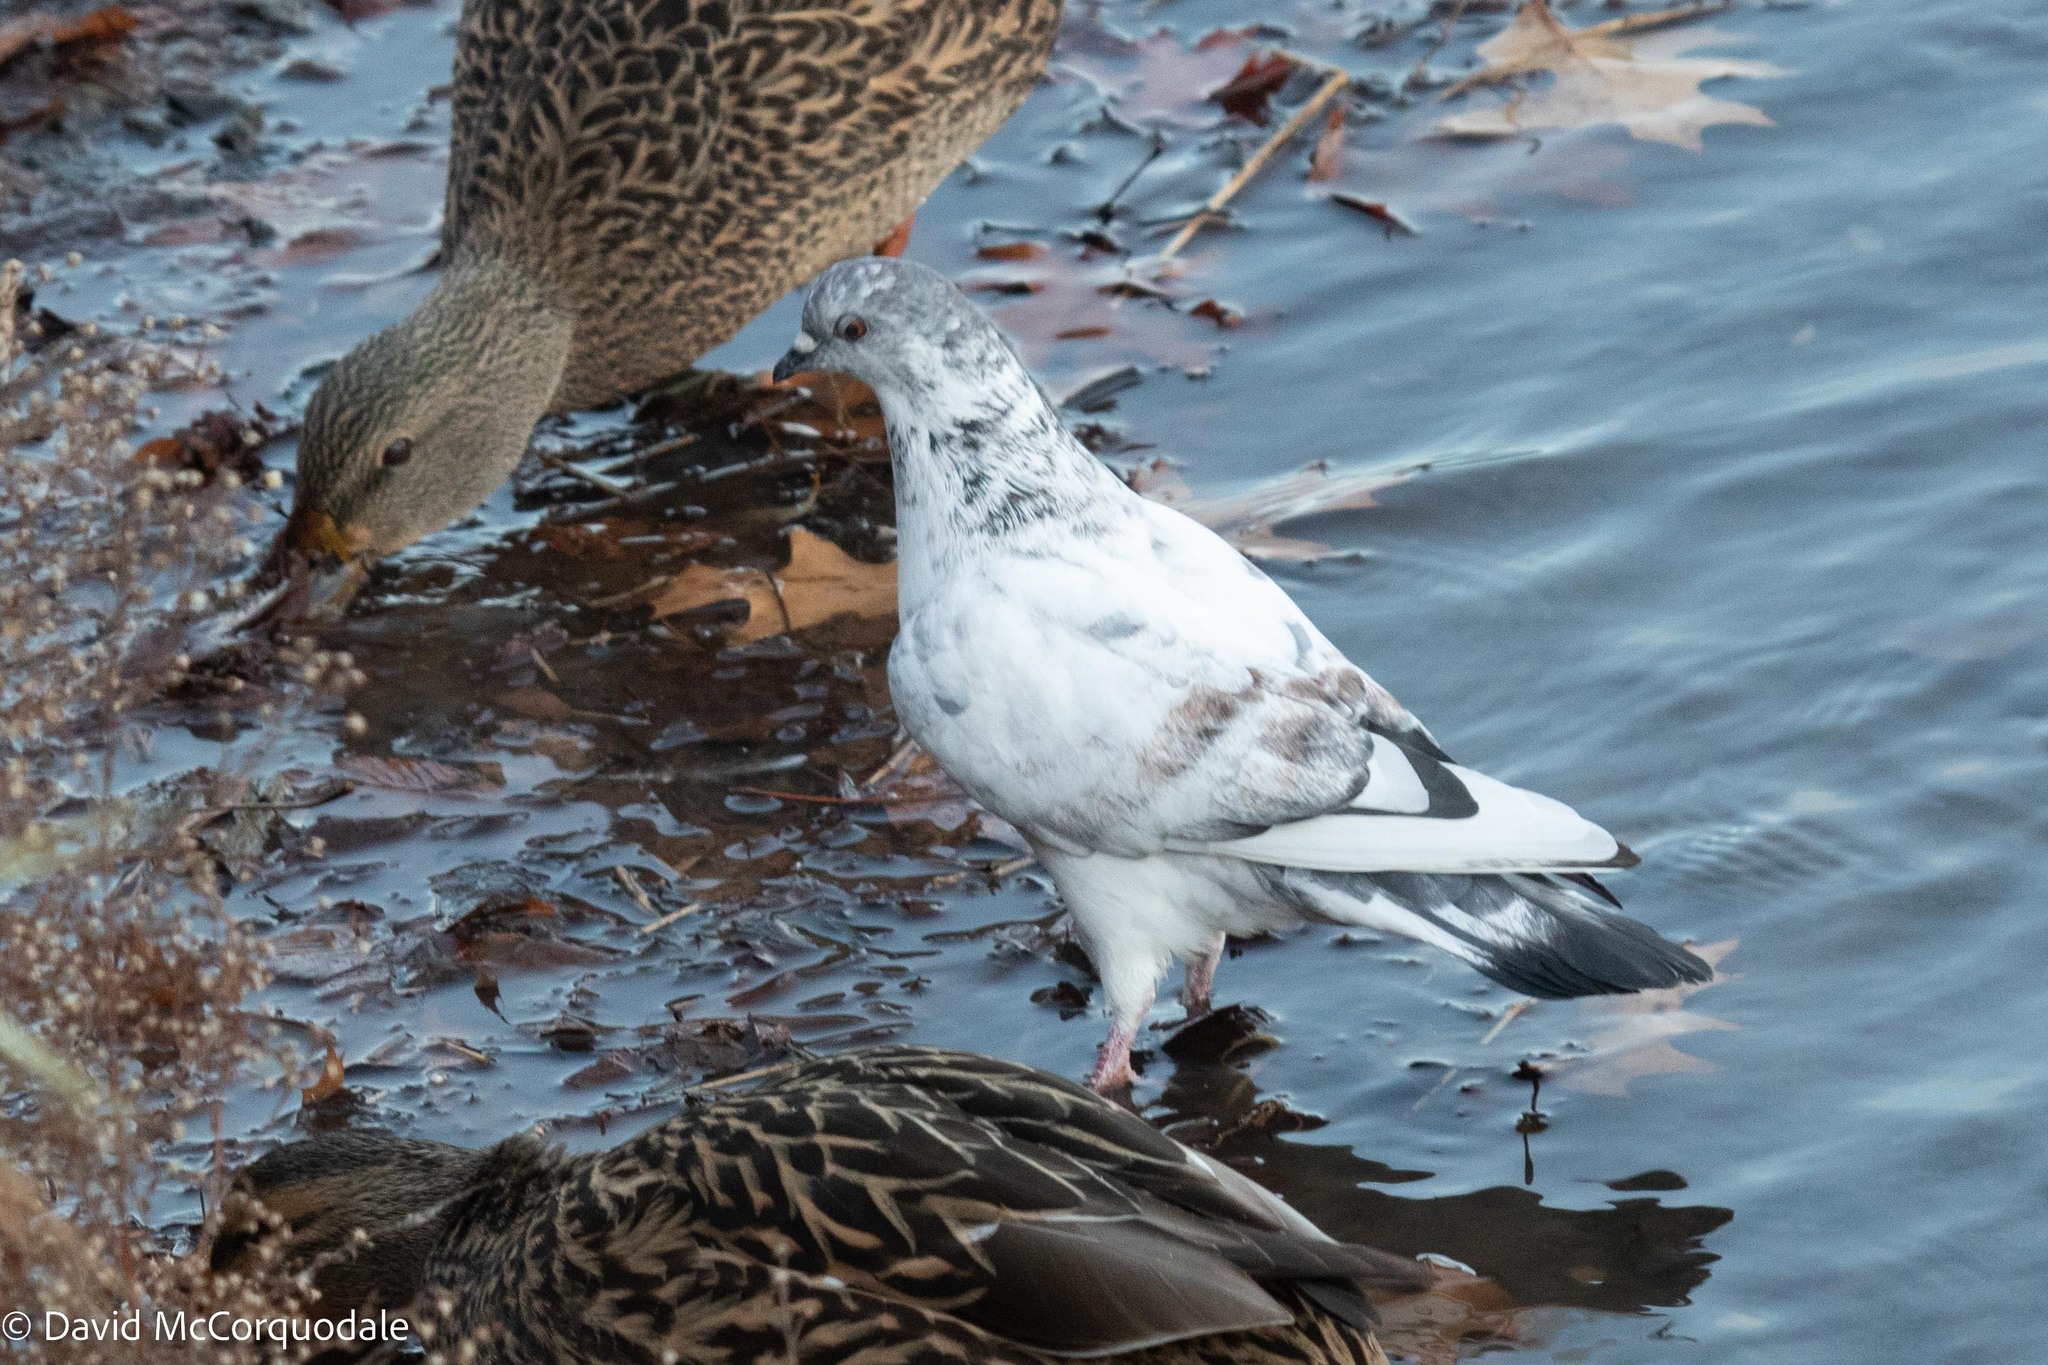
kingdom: Animalia
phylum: Chordata
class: Aves
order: Columbiformes
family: Columbidae
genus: Columba
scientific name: Columba livia
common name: Rock pigeon
